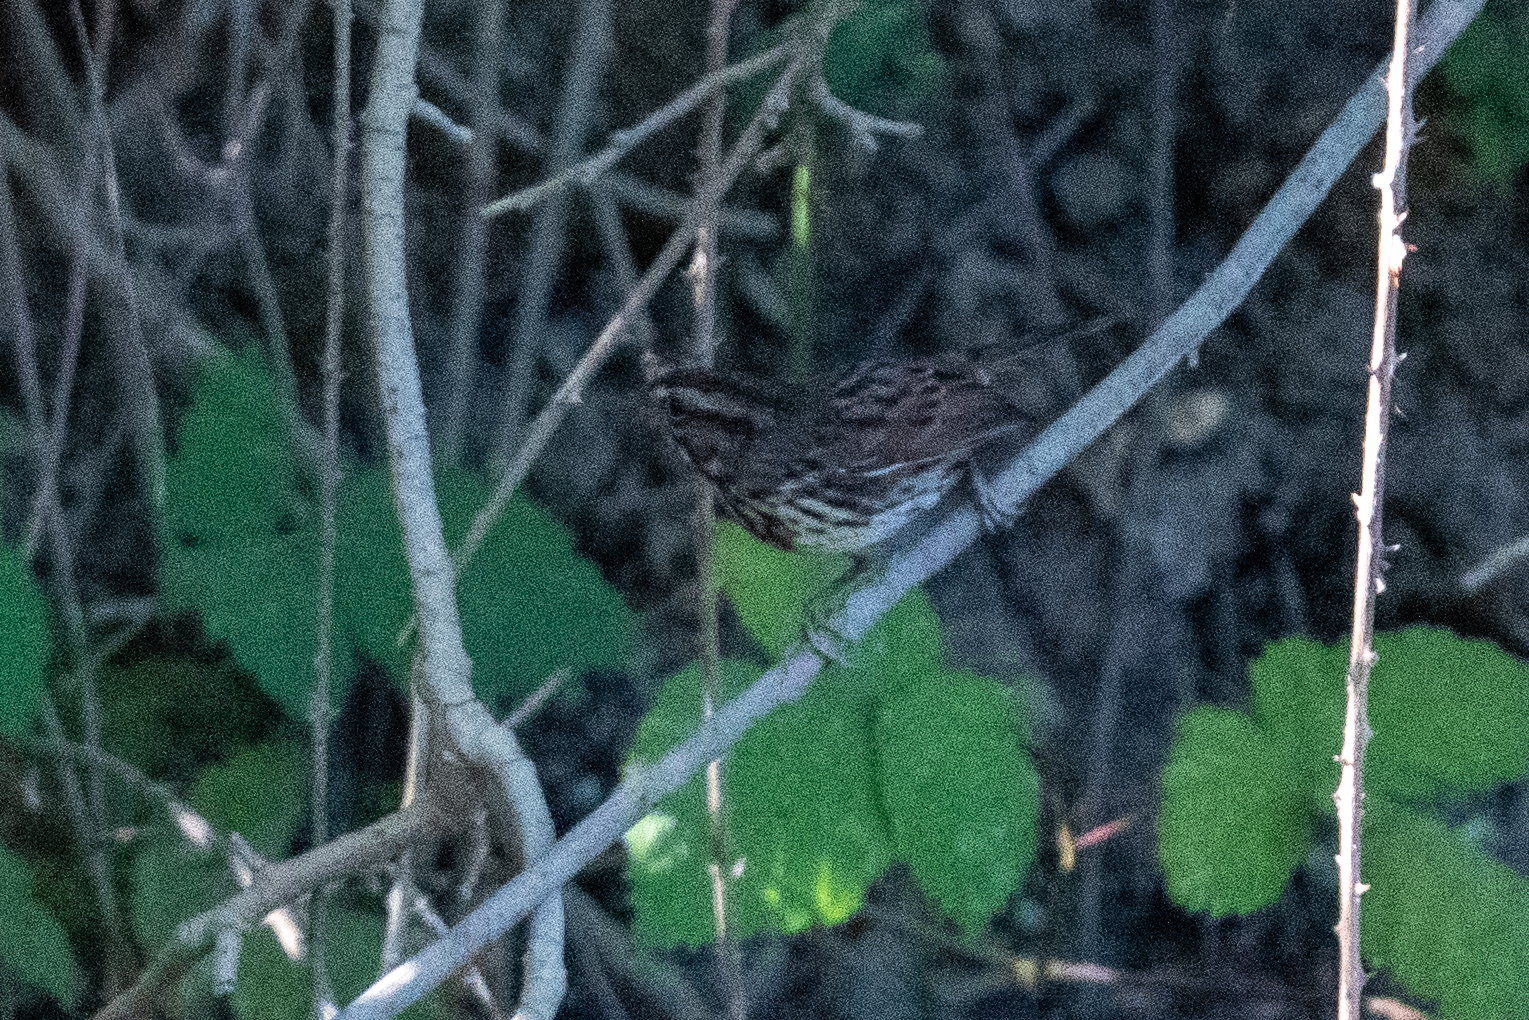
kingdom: Animalia
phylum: Chordata
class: Aves
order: Passeriformes
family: Passerellidae
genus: Melospiza
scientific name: Melospiza melodia
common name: Song sparrow
